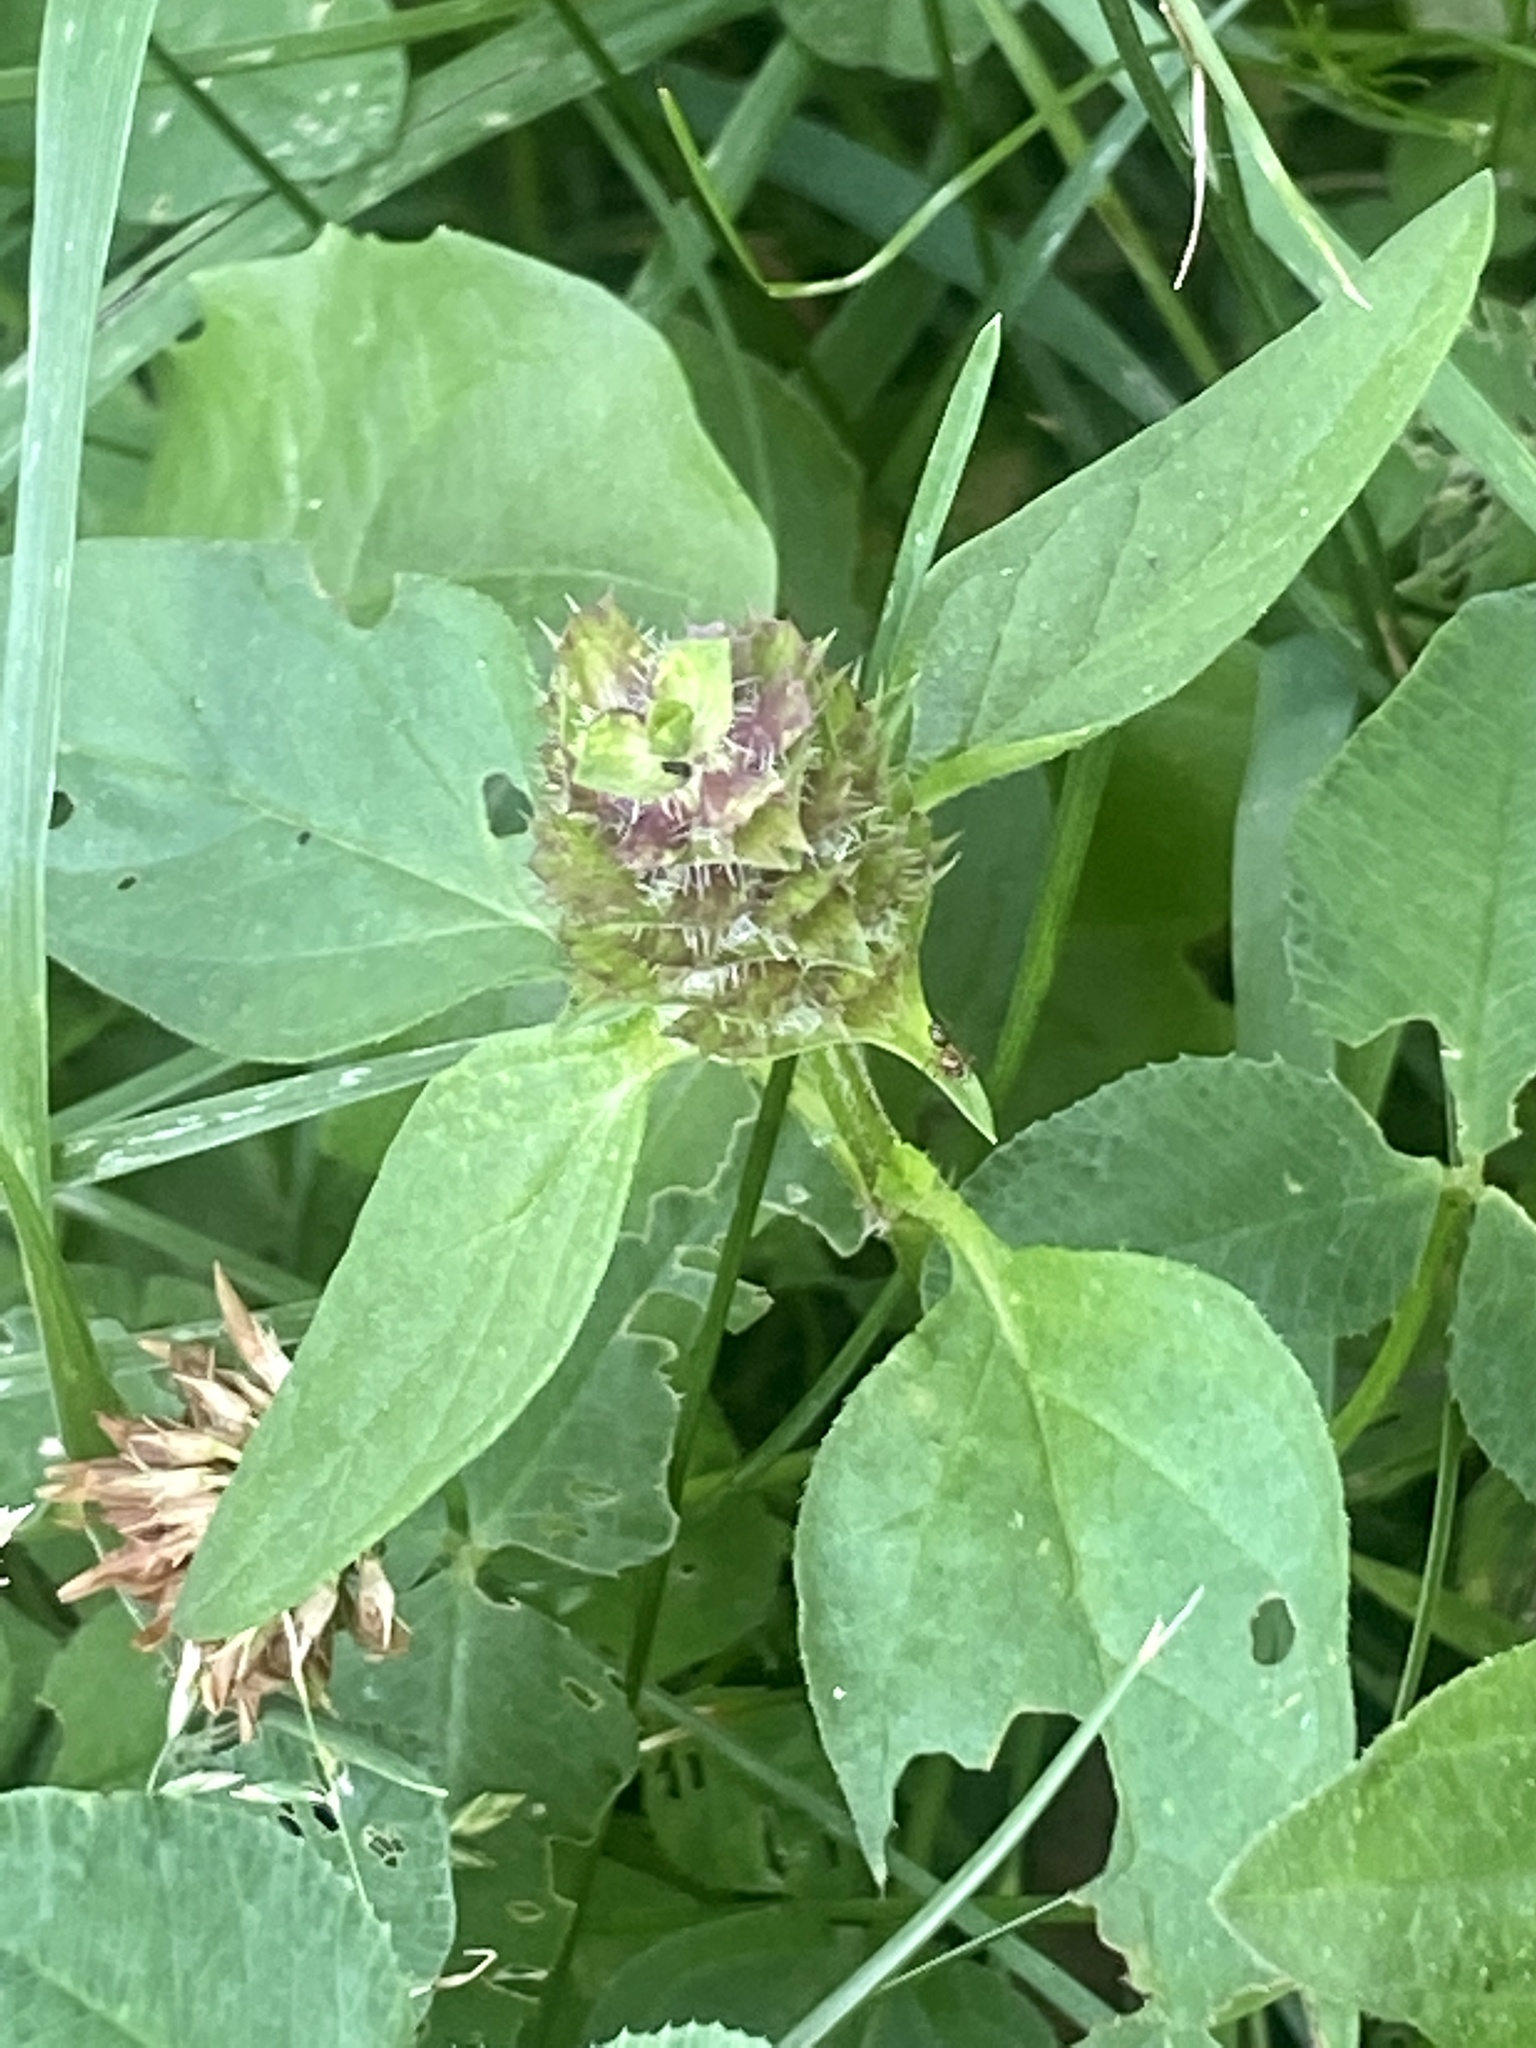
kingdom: Plantae
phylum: Tracheophyta
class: Magnoliopsida
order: Lamiales
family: Lamiaceae
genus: Prunella
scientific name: Prunella vulgaris
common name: Heal-all
